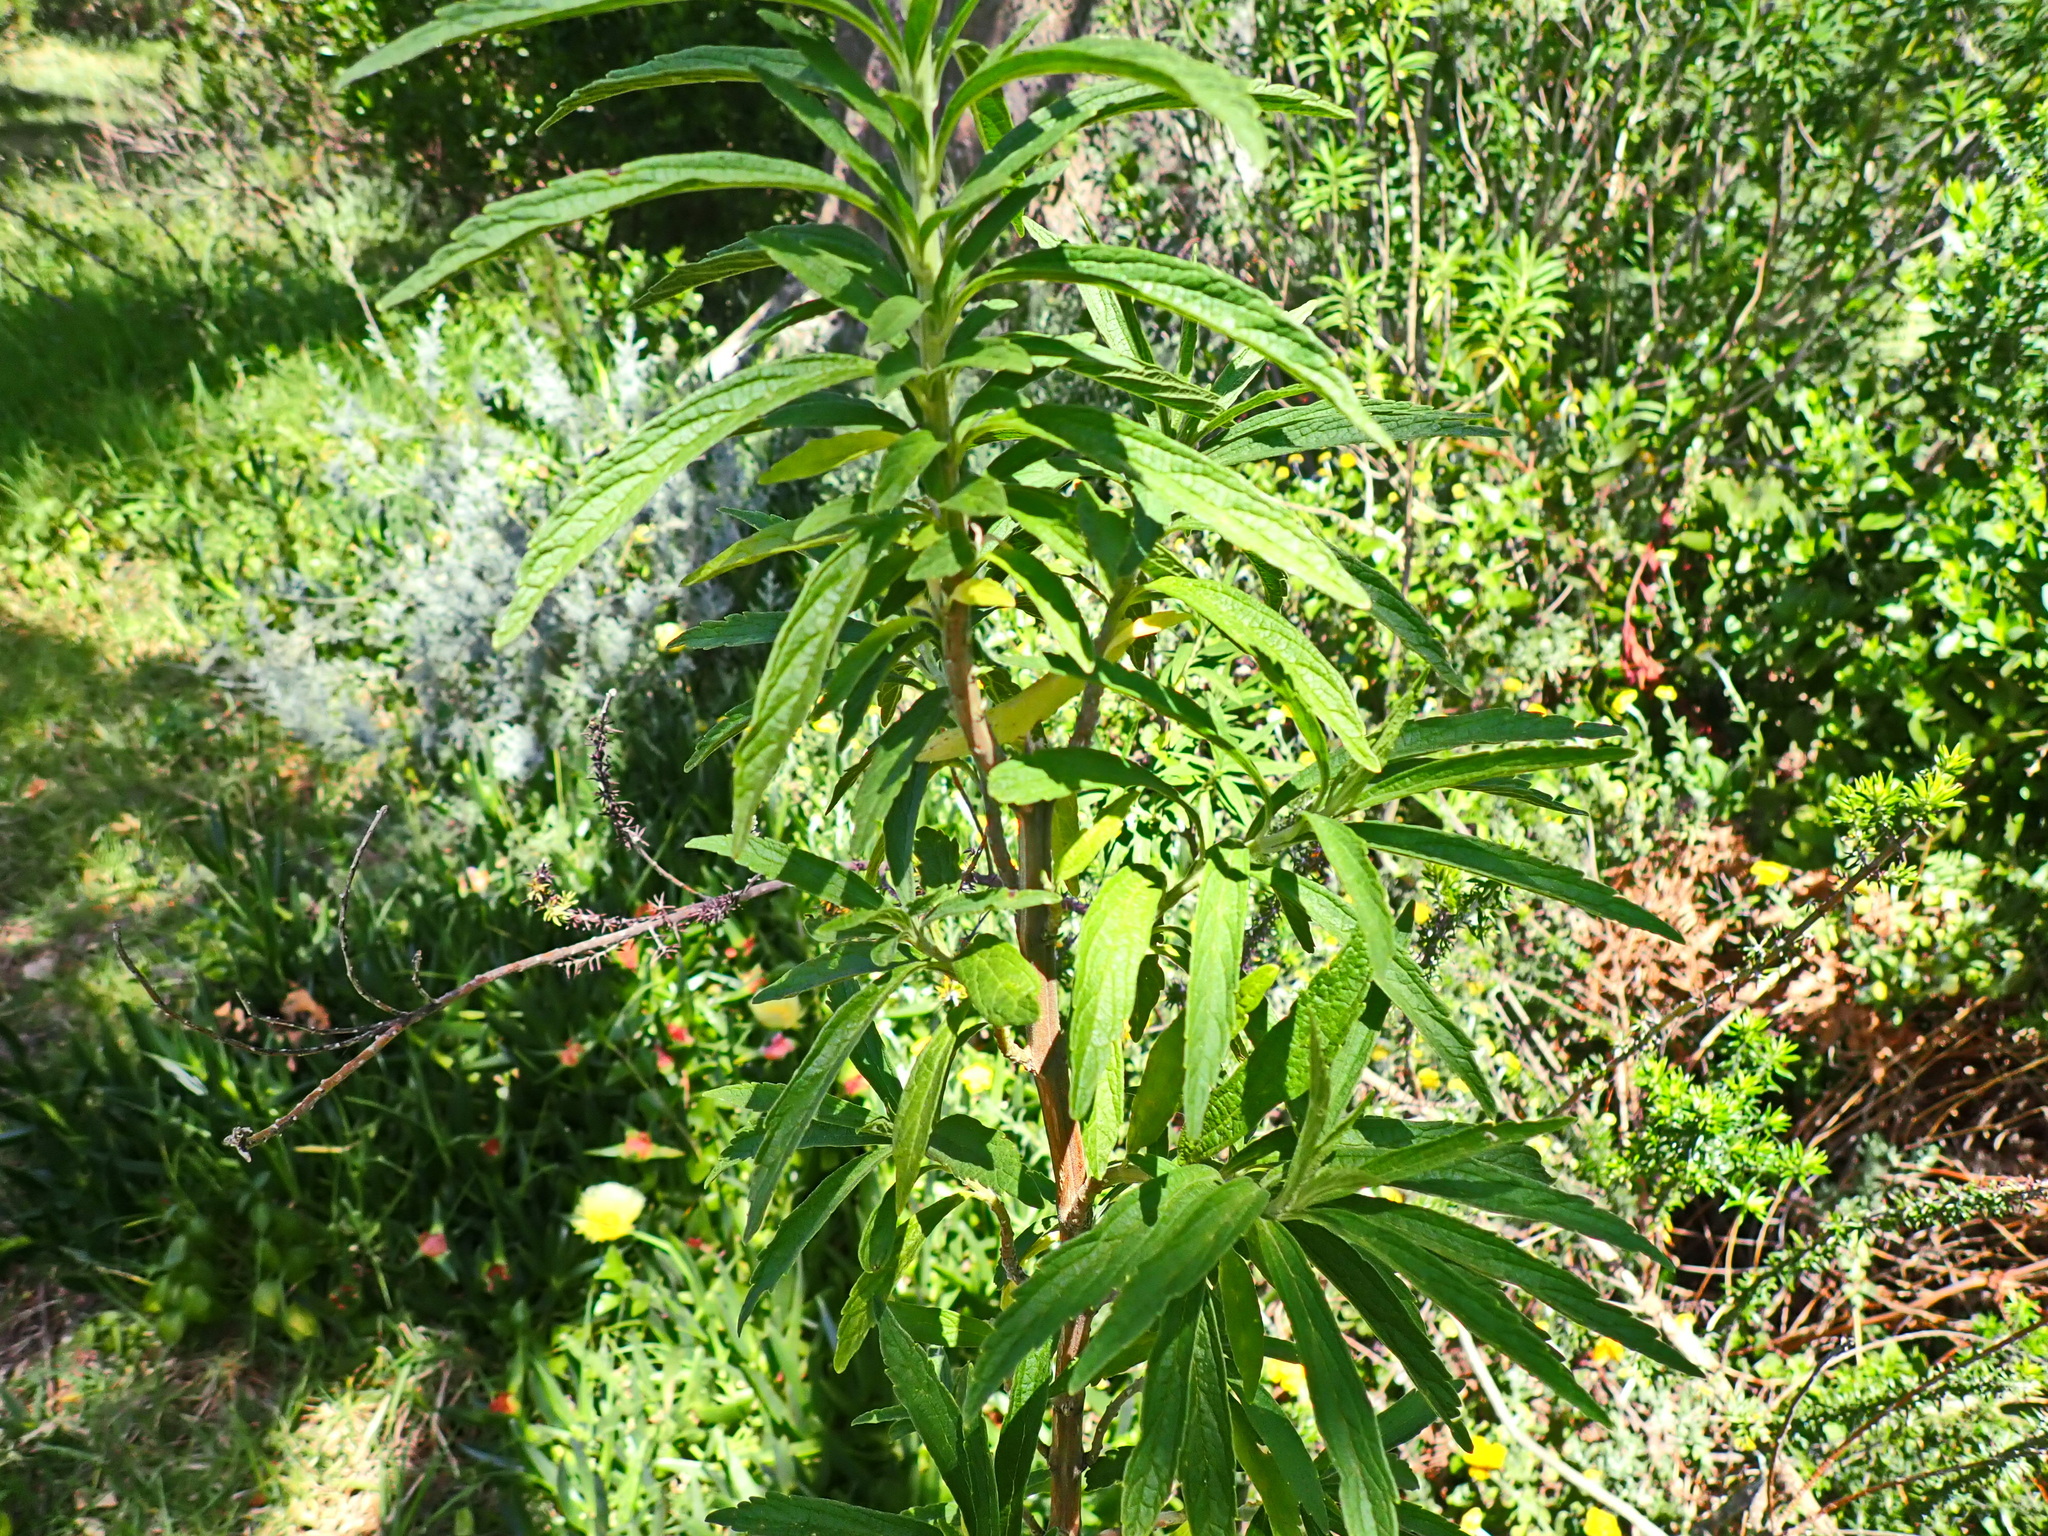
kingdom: Plantae
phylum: Tracheophyta
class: Magnoliopsida
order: Lamiales
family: Lamiaceae
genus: Leonotis
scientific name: Leonotis leonurus
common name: Lion's ear
